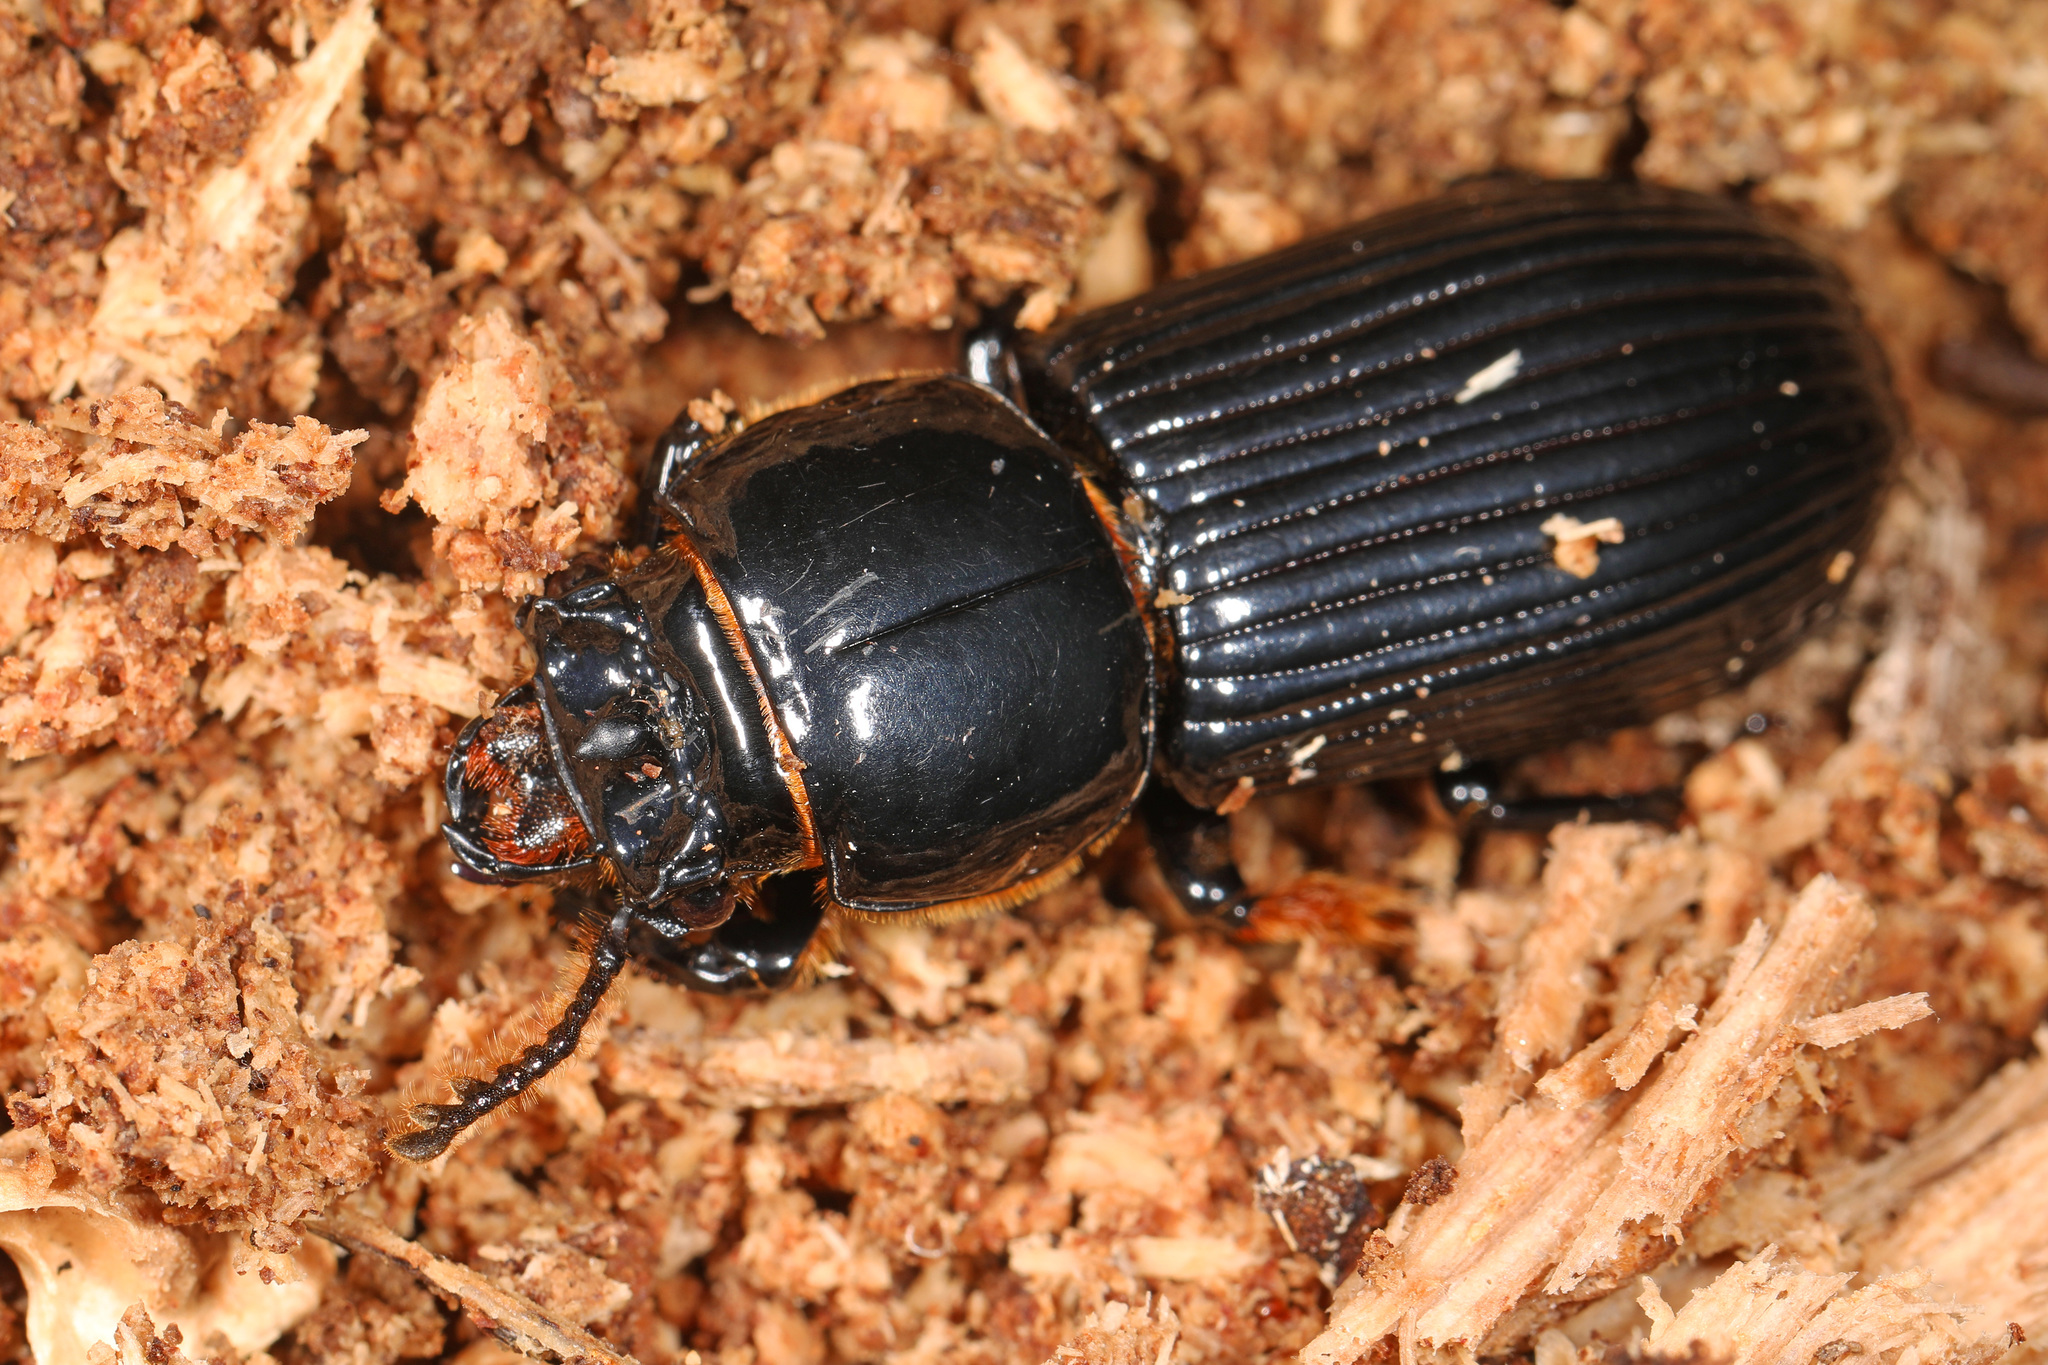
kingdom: Animalia
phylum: Arthropoda
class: Insecta
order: Coleoptera
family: Passalidae
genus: Odontotaenius
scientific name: Odontotaenius disjunctus
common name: Patent leather beetle
